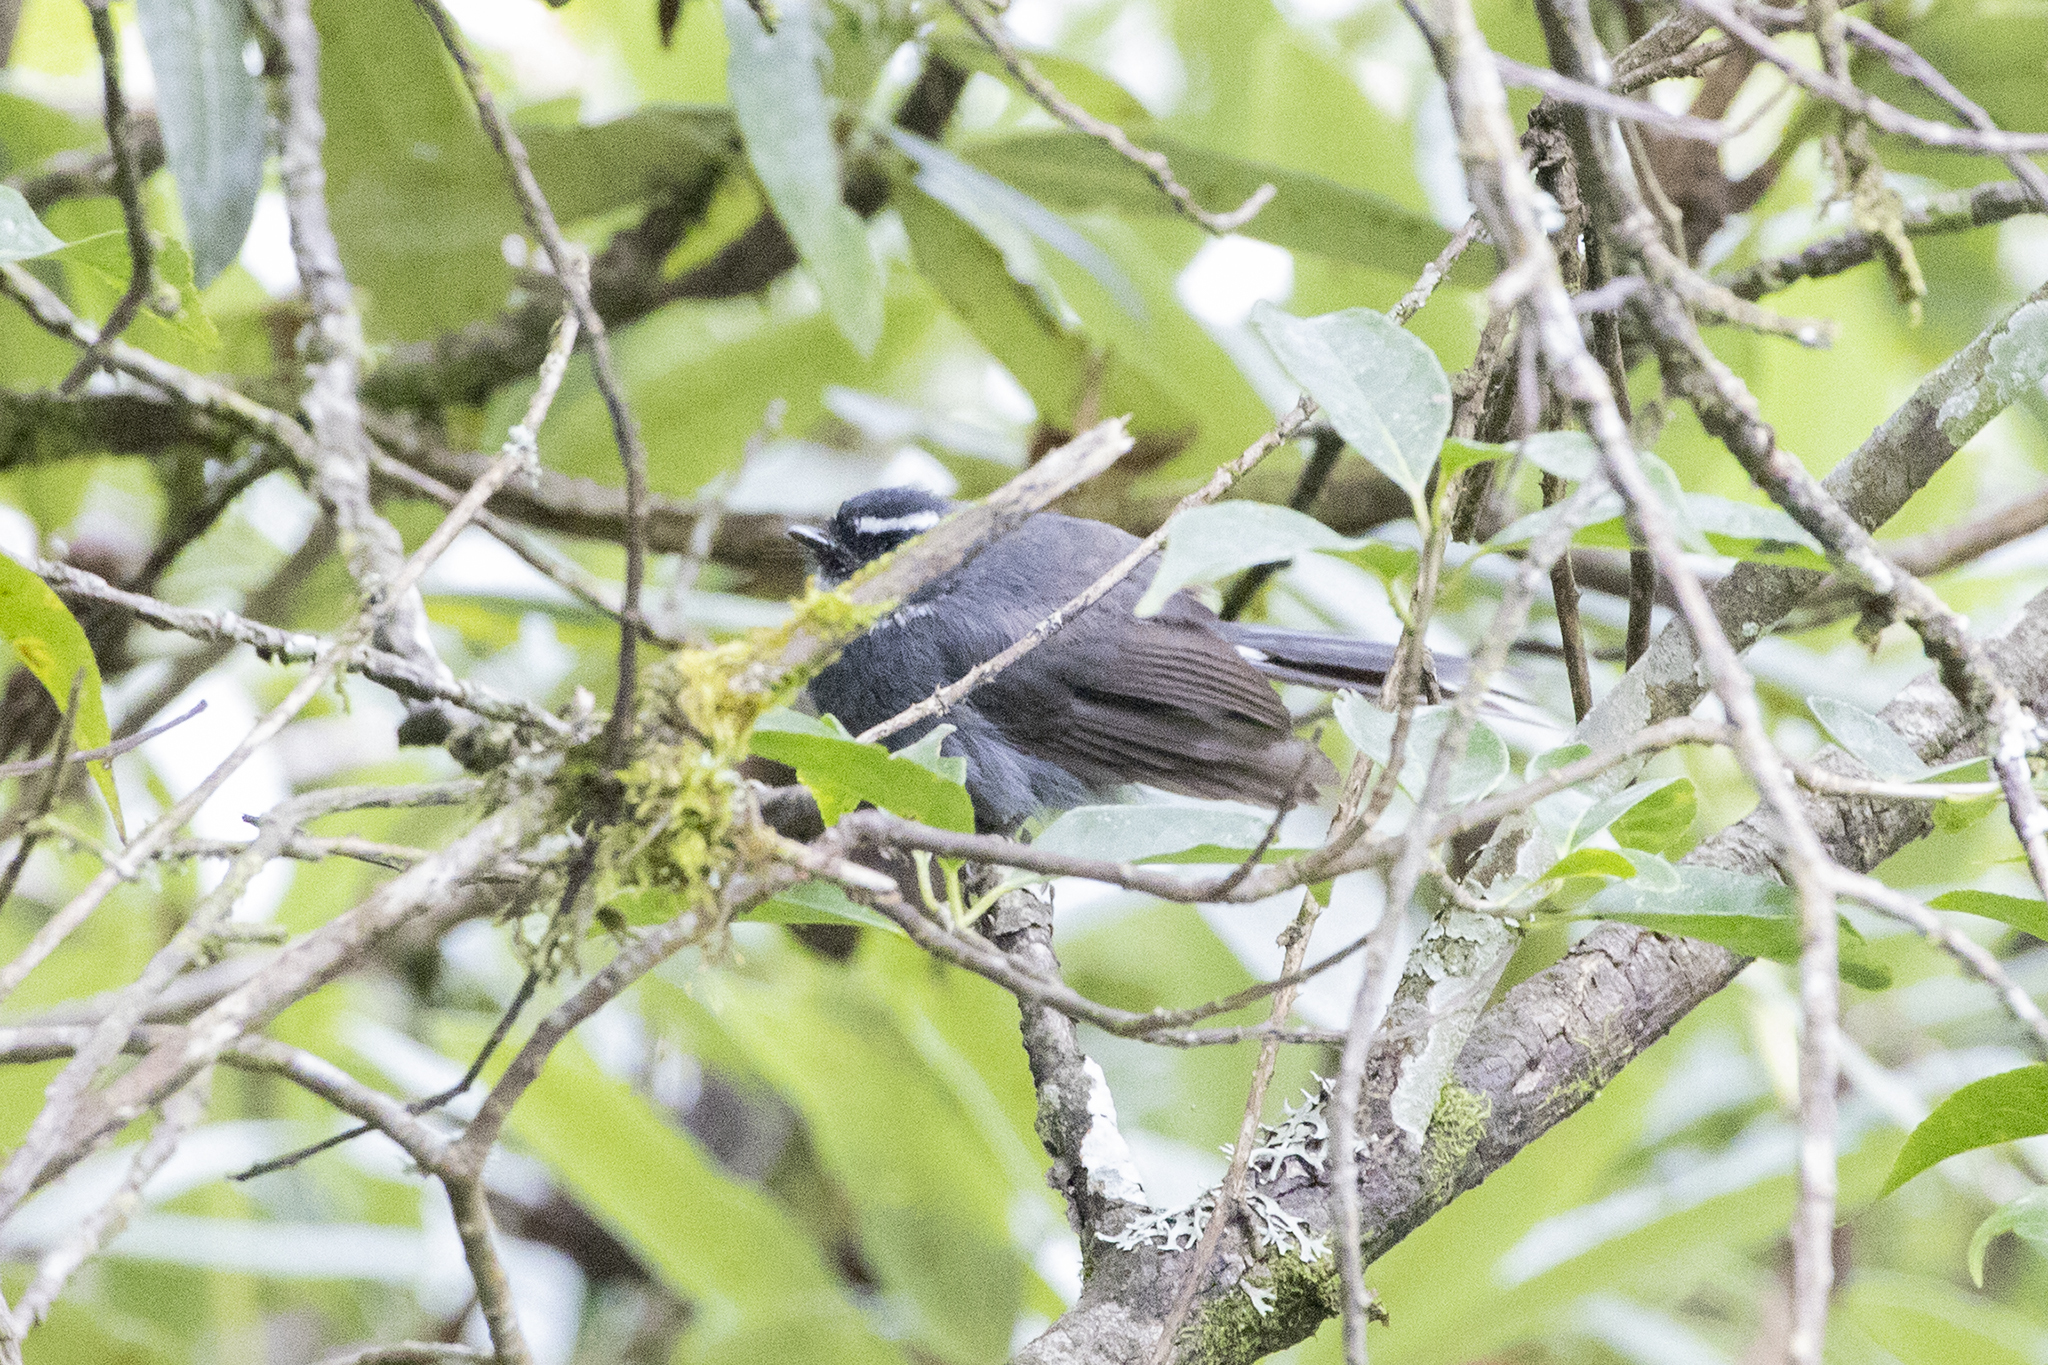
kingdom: Animalia
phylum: Chordata
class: Aves
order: Passeriformes
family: Rhipiduridae
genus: Rhipidura
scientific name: Rhipidura albicollis
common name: White-throated fantail
